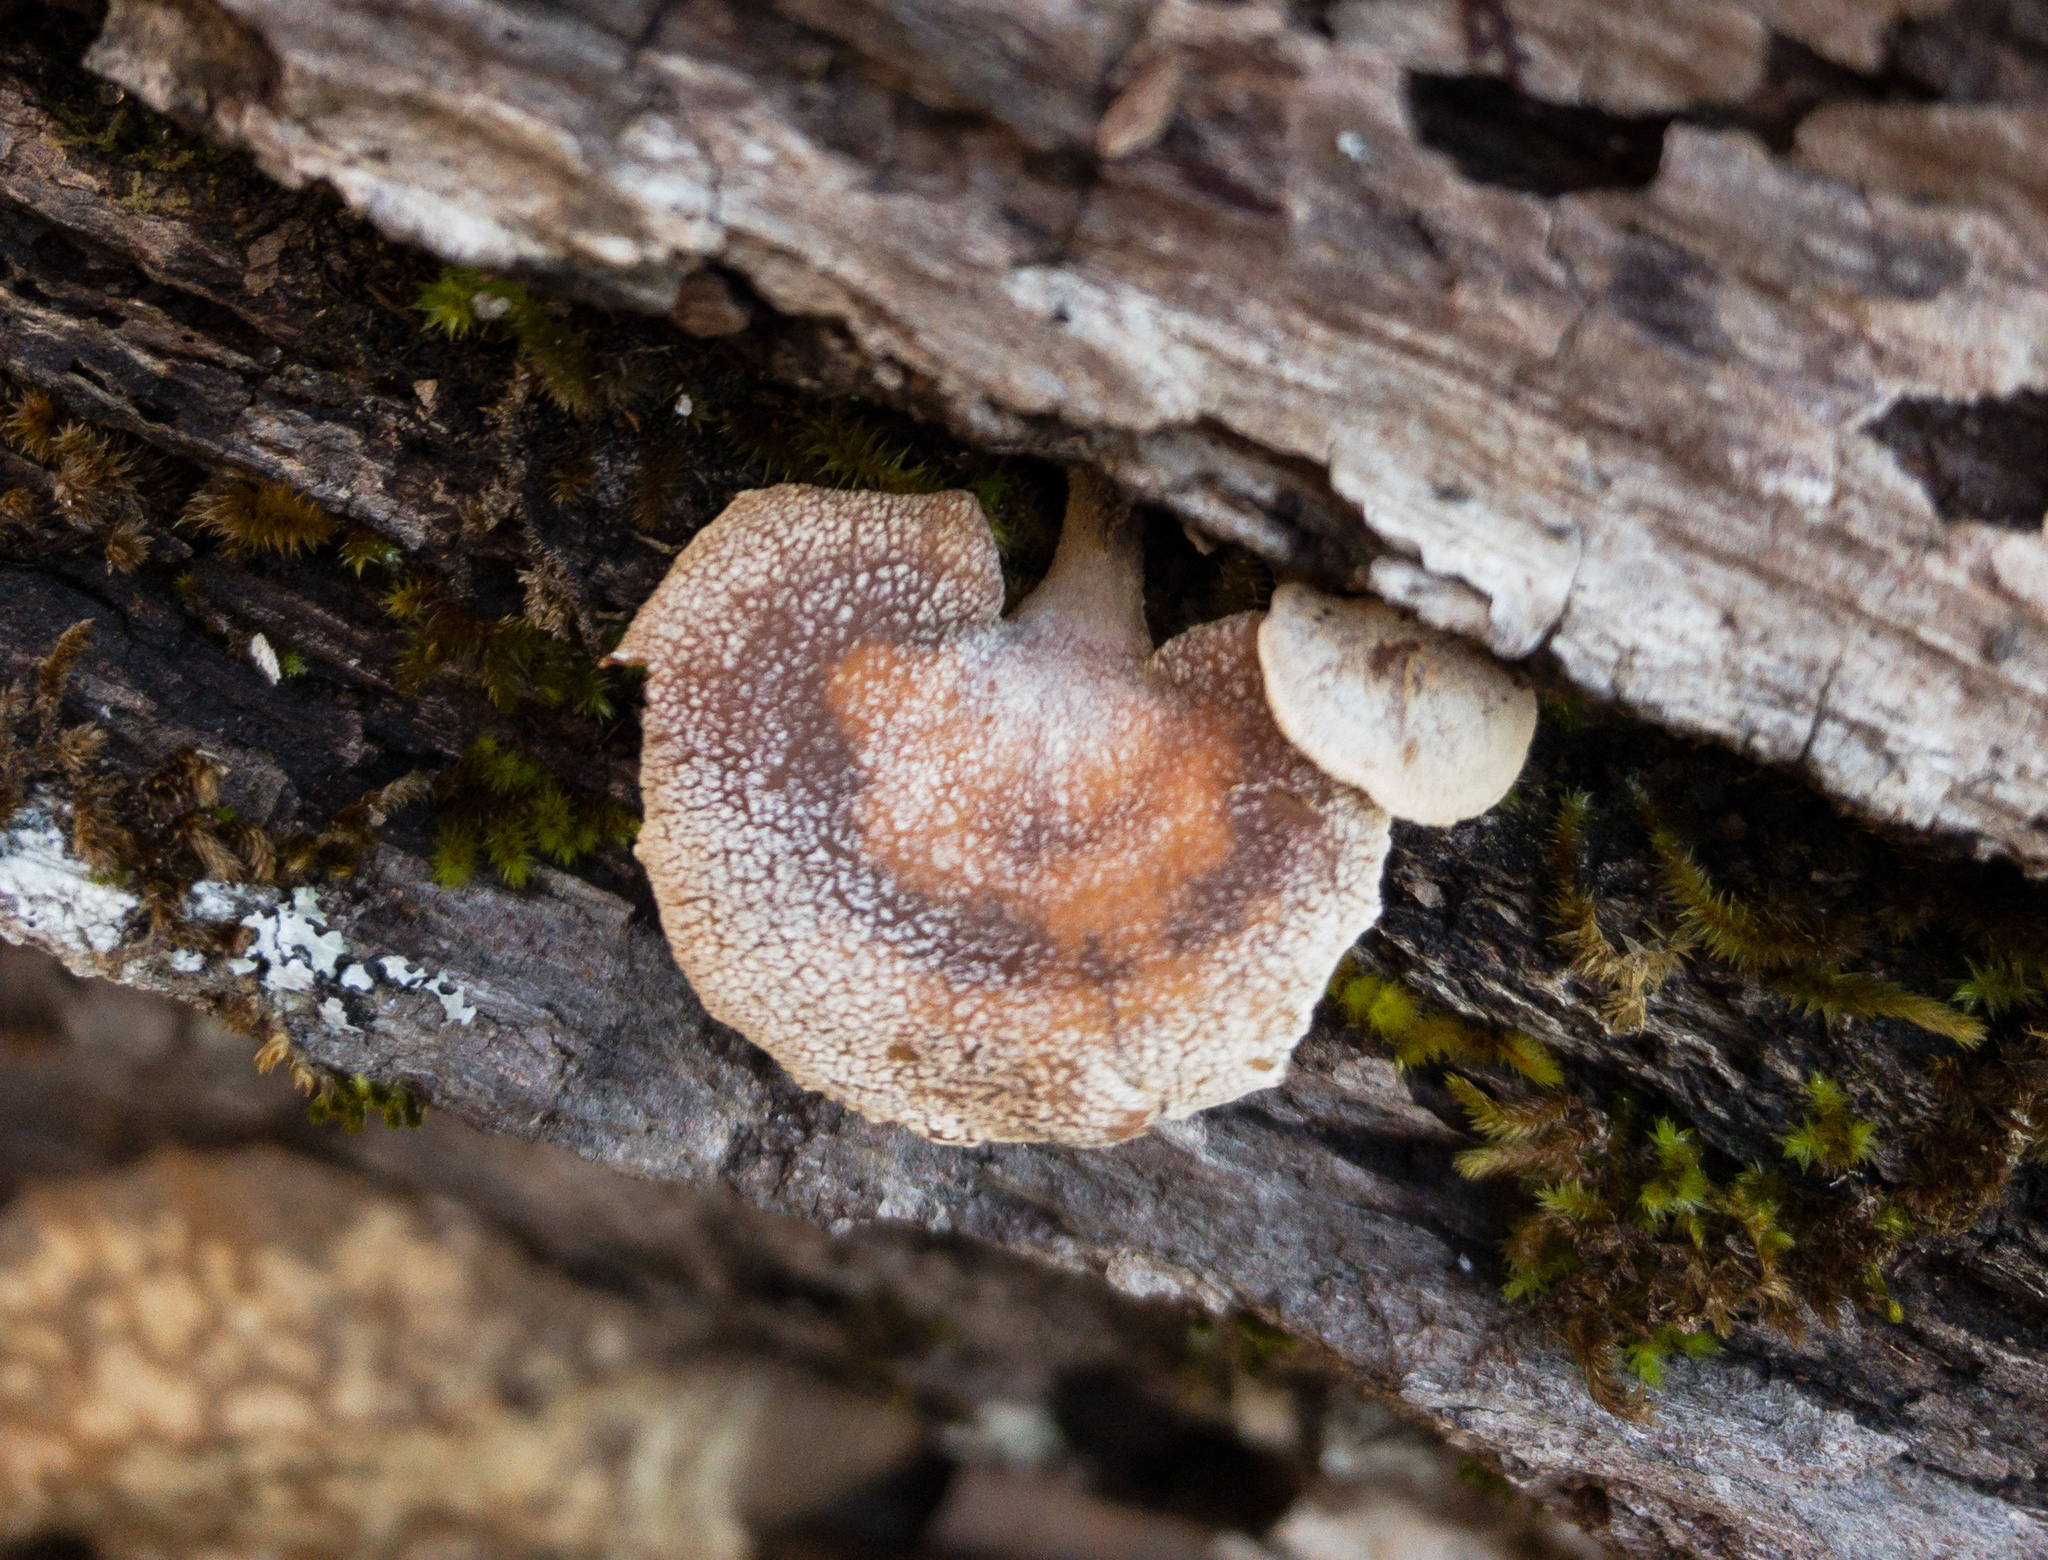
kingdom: Fungi
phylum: Basidiomycota
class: Agaricomycetes
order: Agaricales
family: Mycenaceae
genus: Panellus
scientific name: Panellus stipticus
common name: Bitter oysterling
